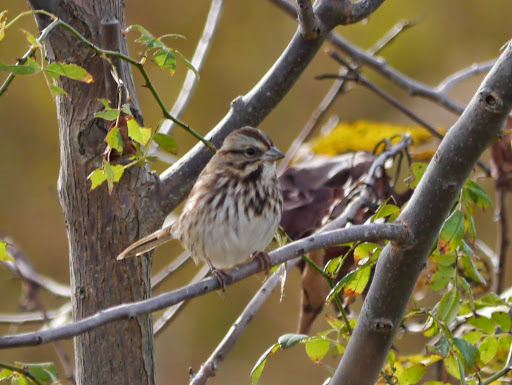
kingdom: Animalia
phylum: Chordata
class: Aves
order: Passeriformes
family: Passerellidae
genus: Melospiza
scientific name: Melospiza melodia
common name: Song sparrow
